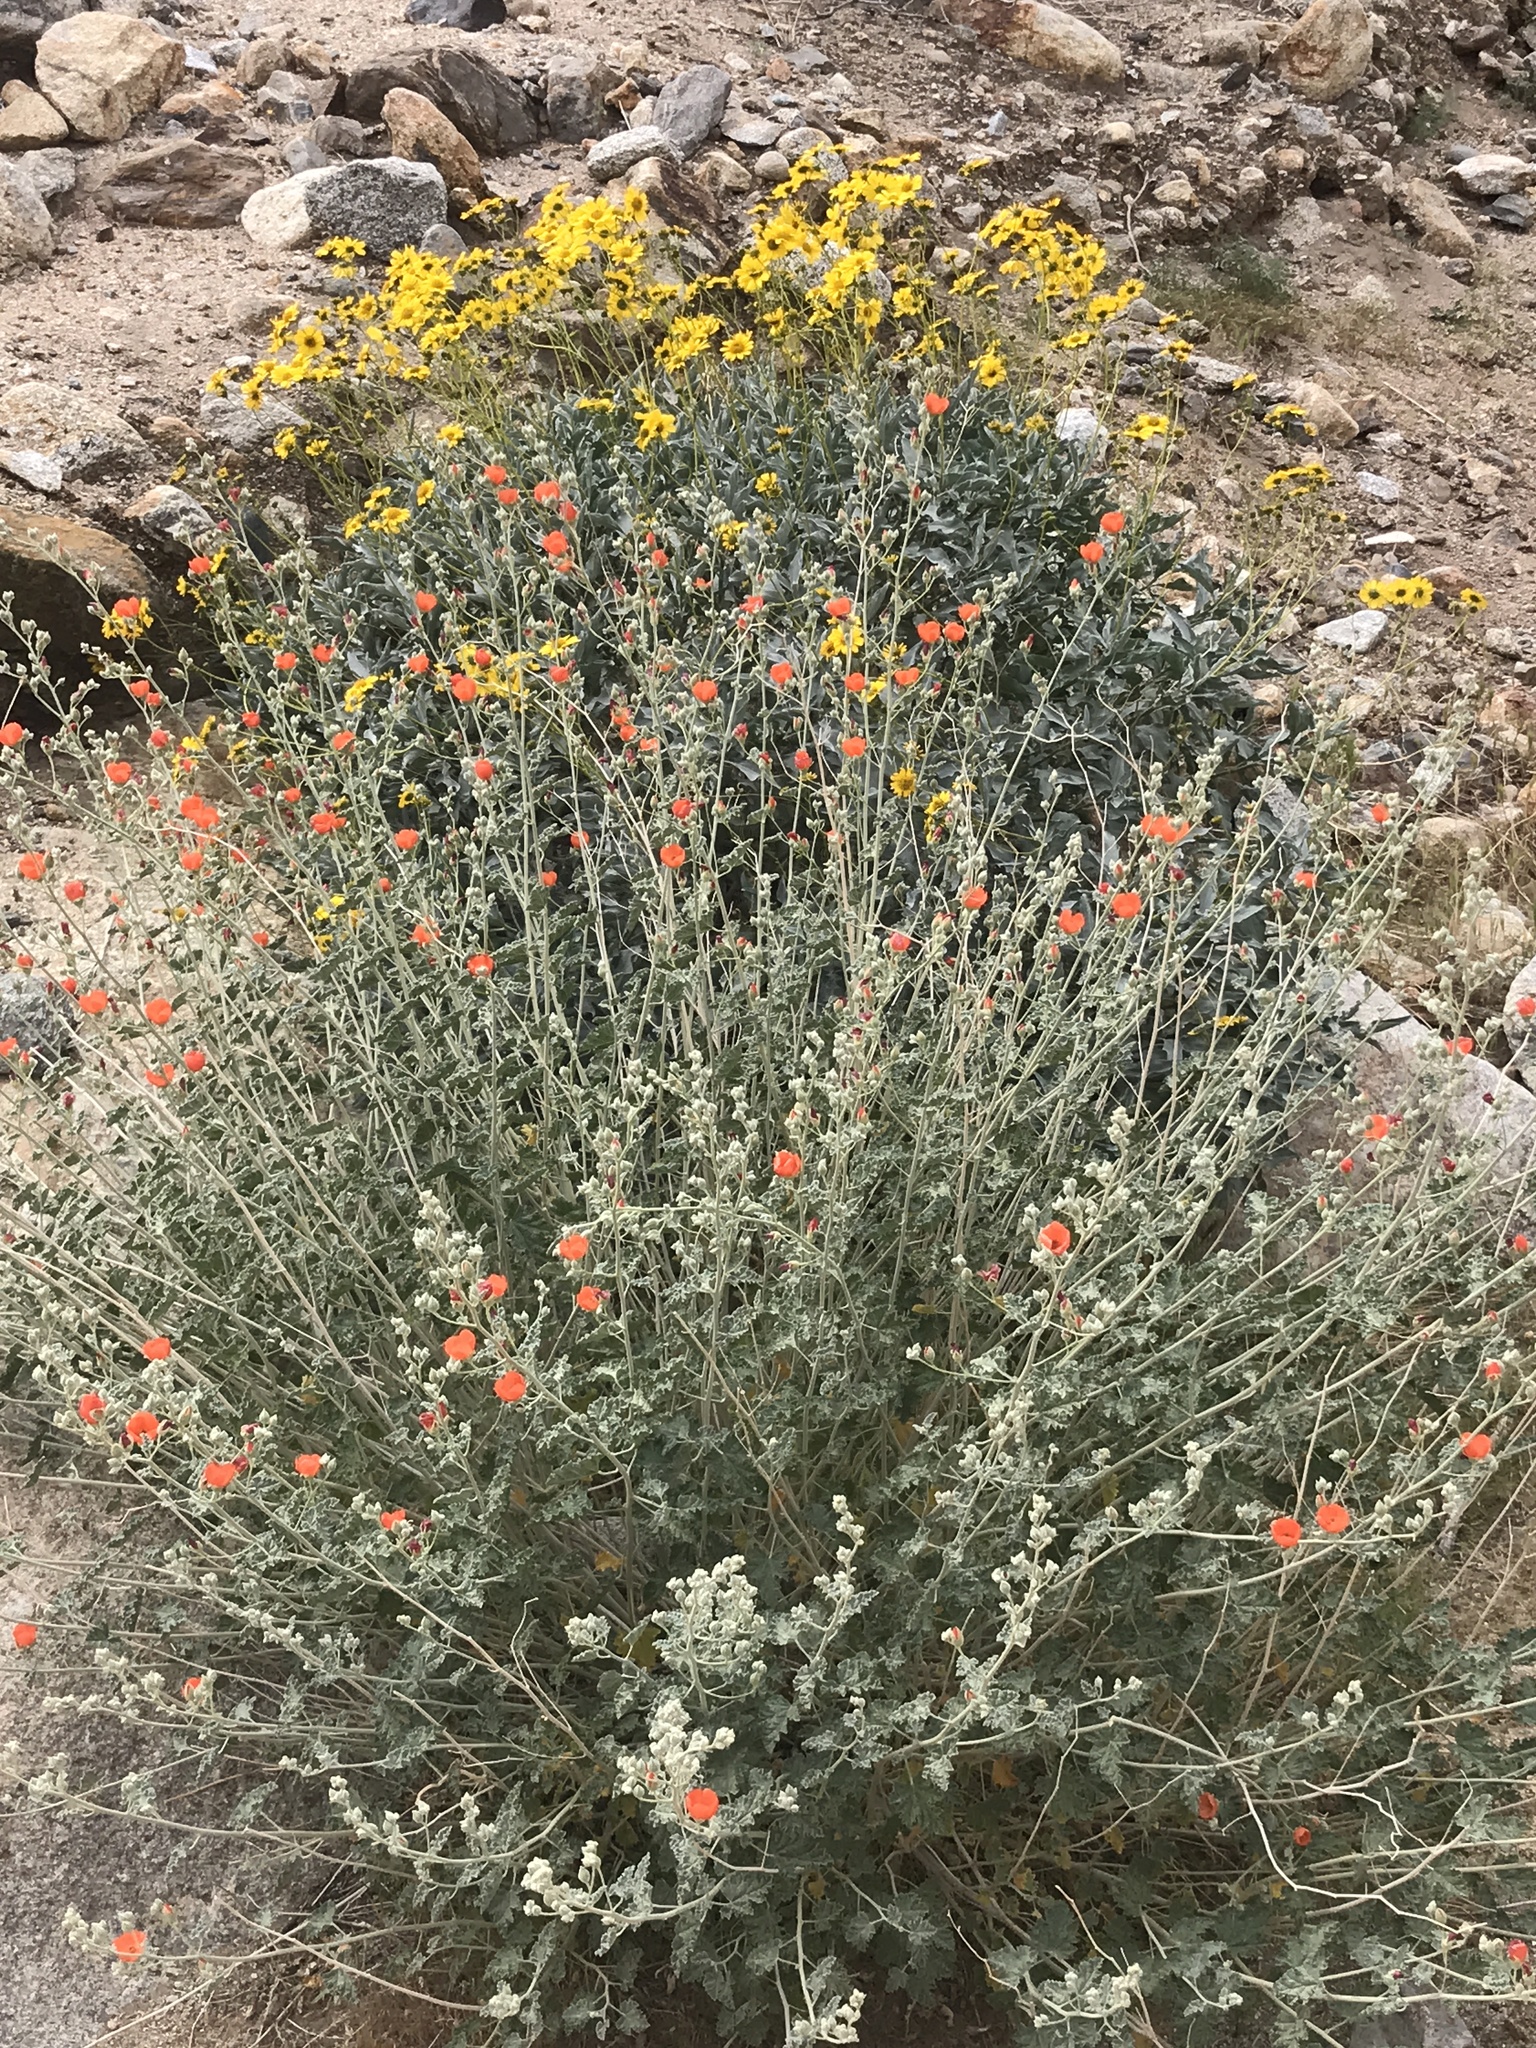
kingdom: Plantae
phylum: Tracheophyta
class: Magnoliopsida
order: Malvales
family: Malvaceae
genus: Sphaeralcea
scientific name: Sphaeralcea ambigua
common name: Apricot globe-mallow
